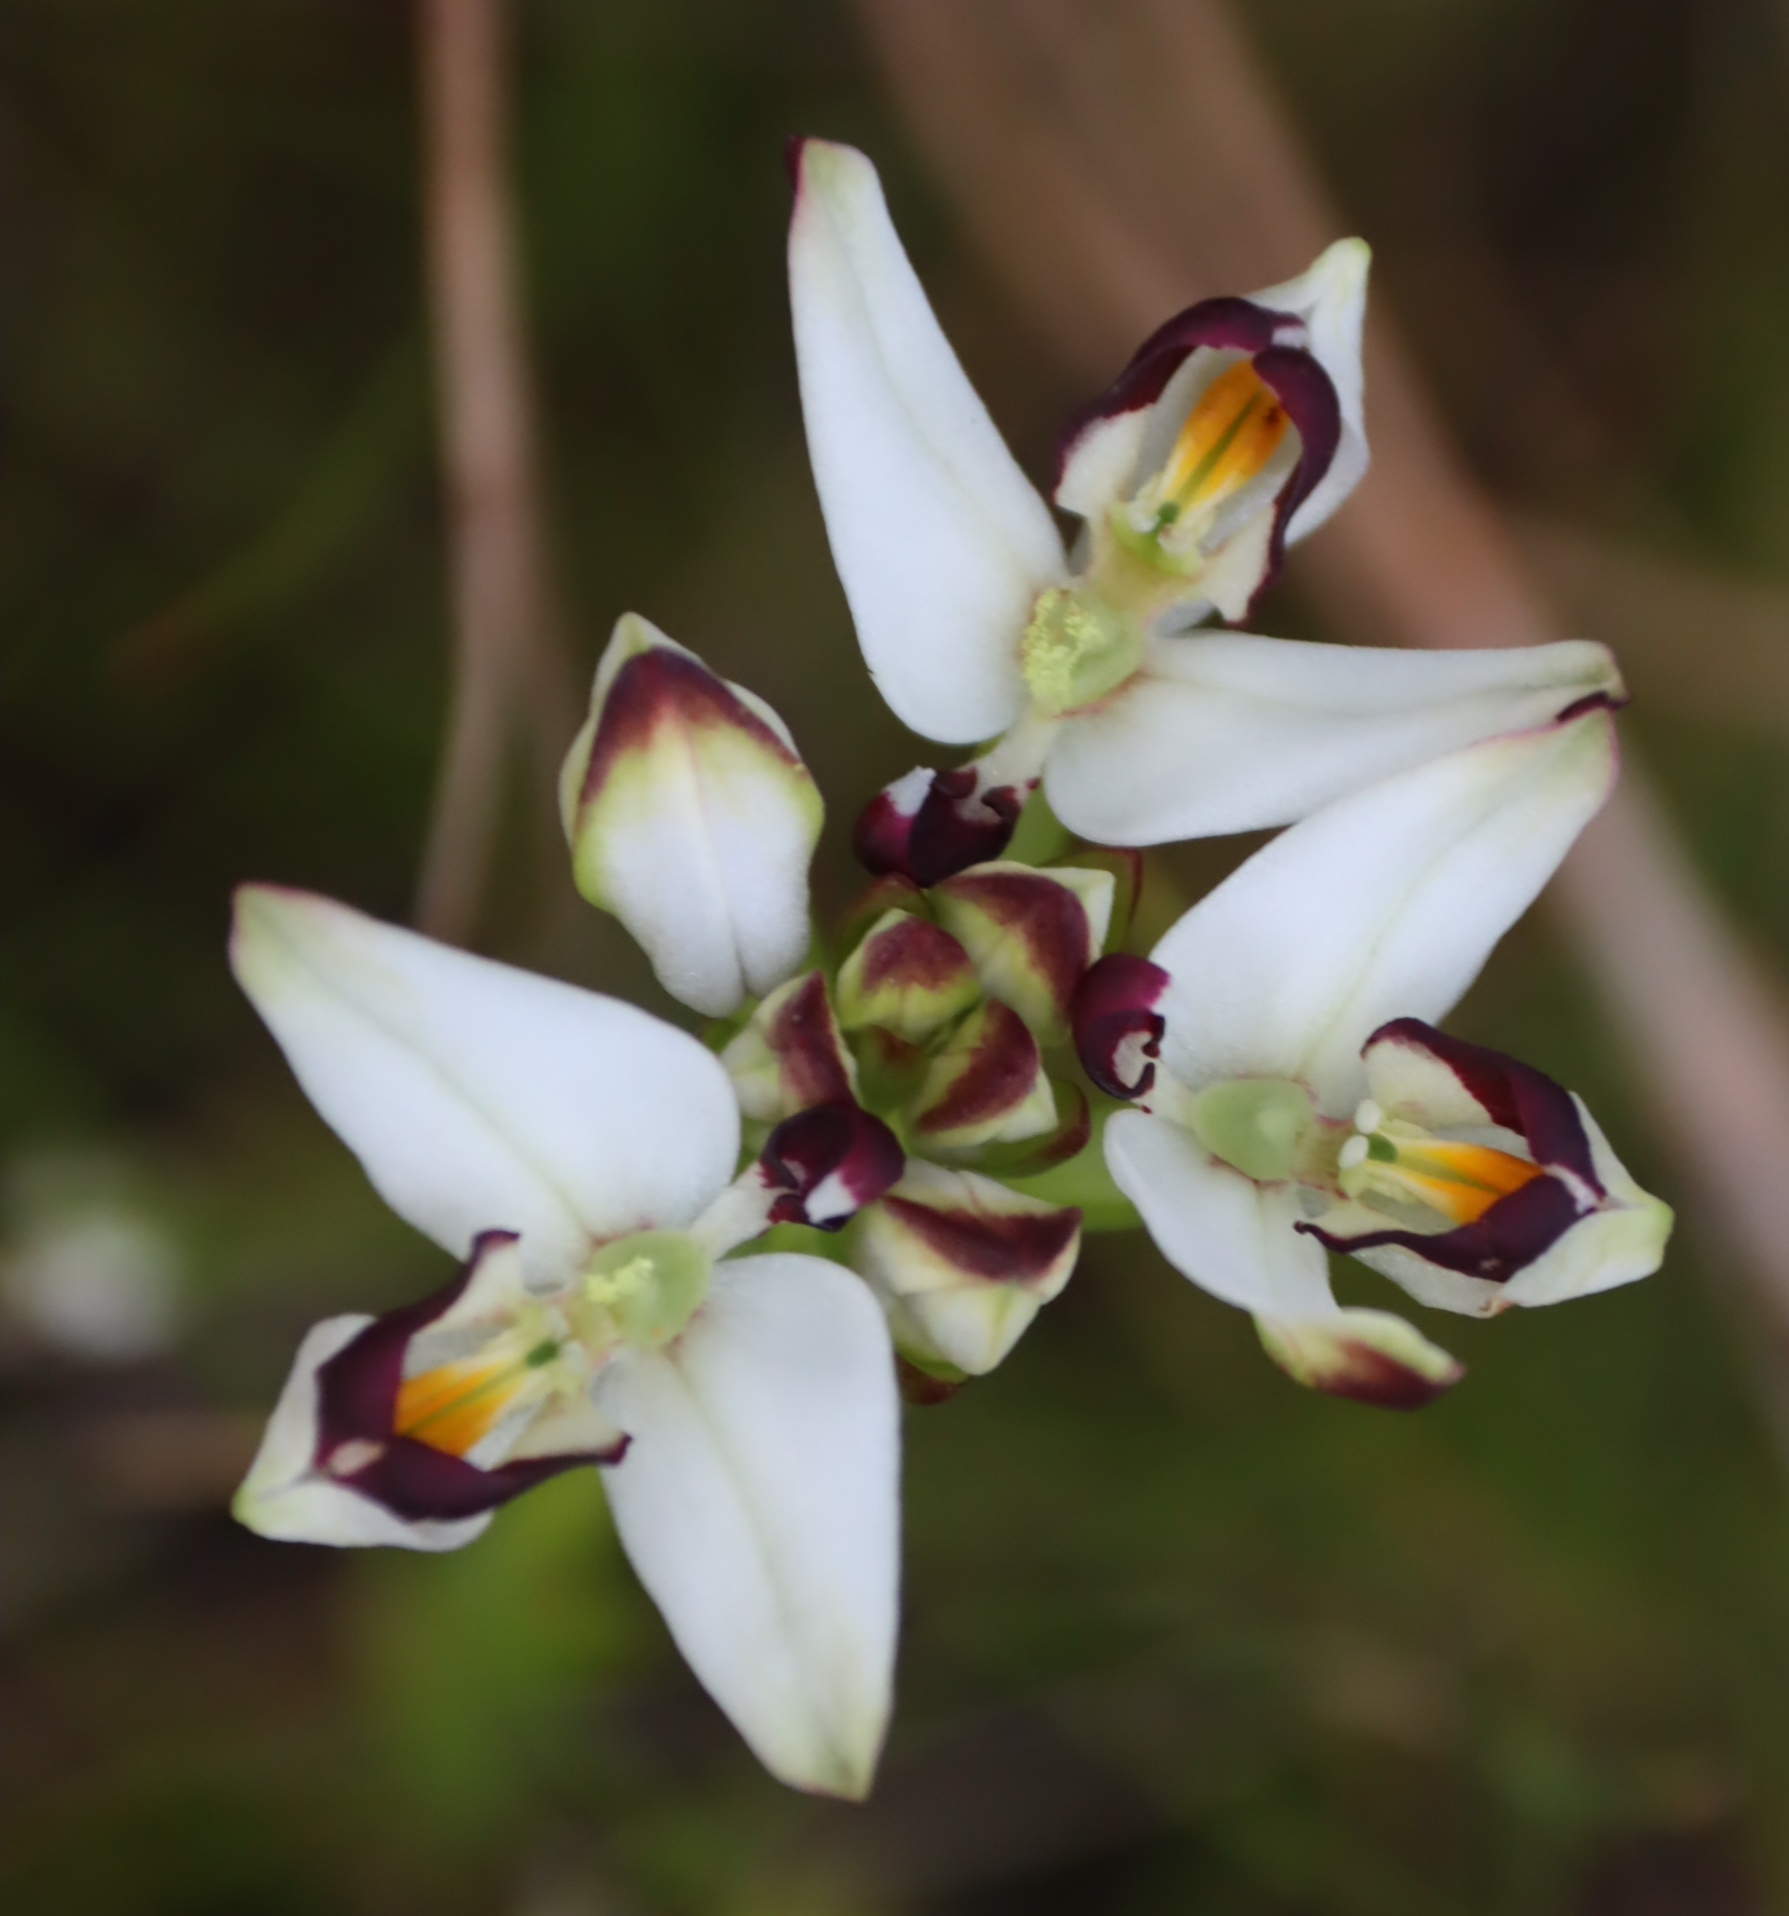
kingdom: Plantae
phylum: Tracheophyta
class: Liliopsida
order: Asparagales
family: Orchidaceae
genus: Disa
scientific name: Disa bivalvata
